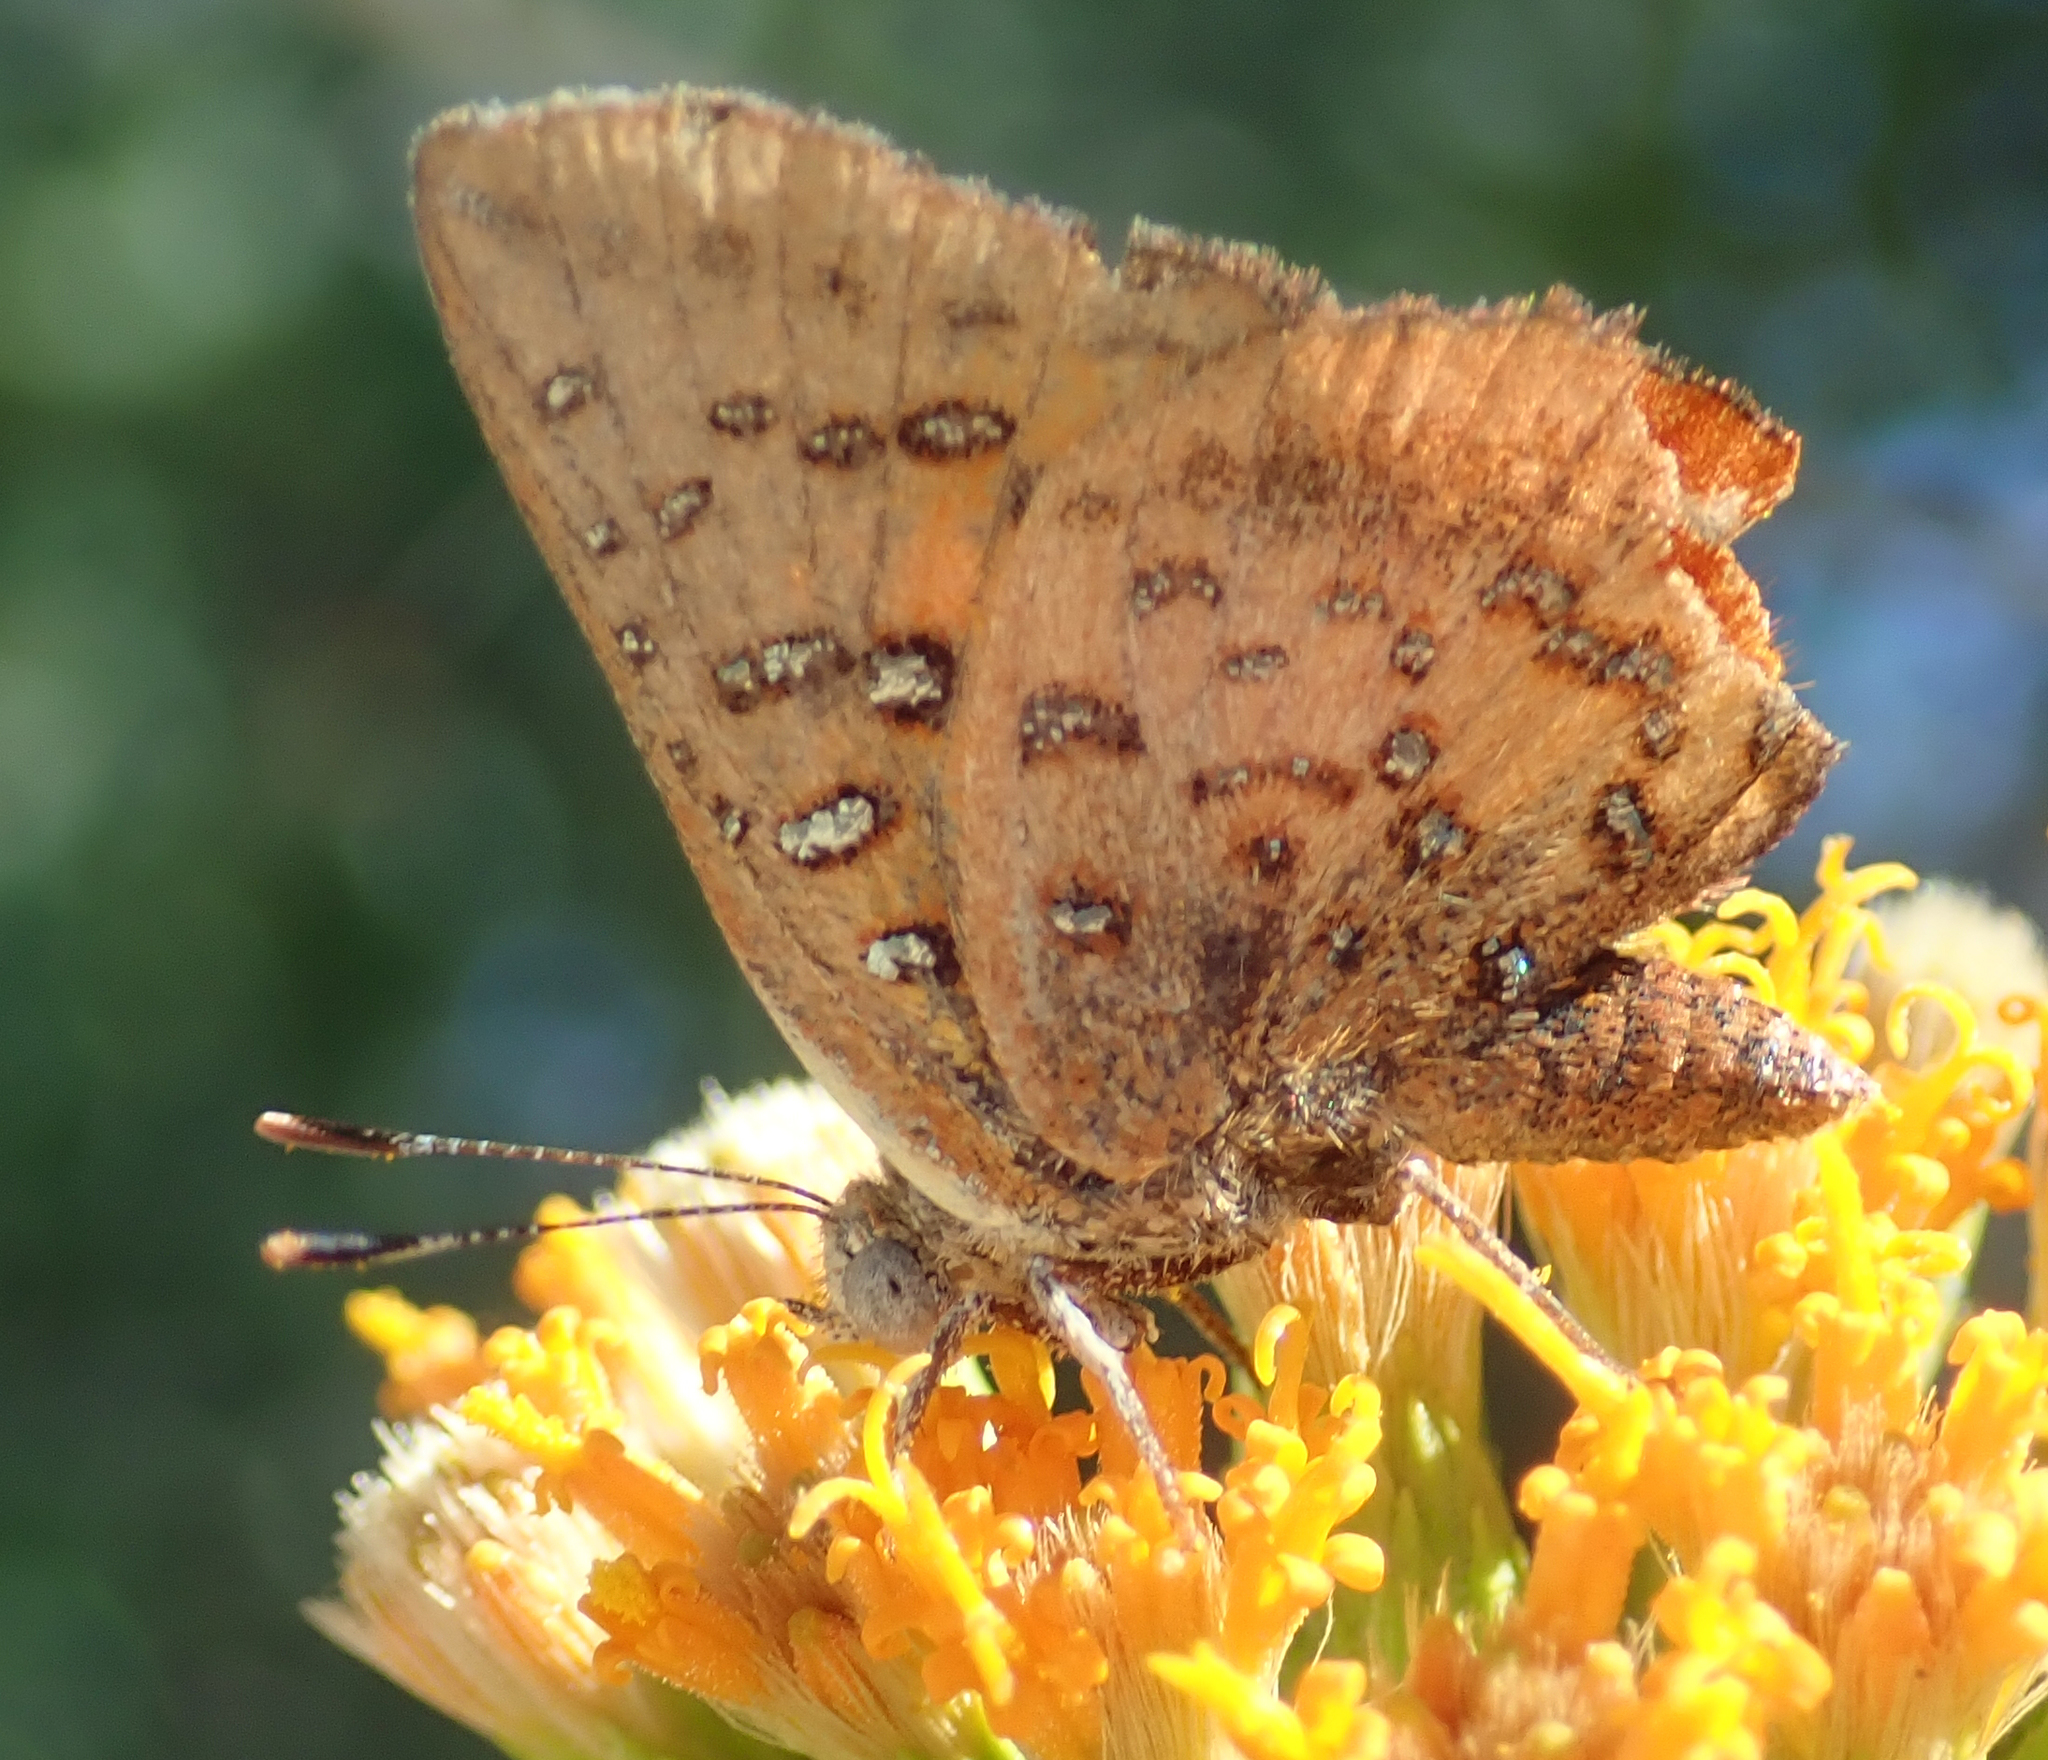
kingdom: Animalia
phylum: Arthropoda
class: Insecta
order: Lepidoptera
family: Lycaenidae
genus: Axiocerses
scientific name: Axiocerses perion
